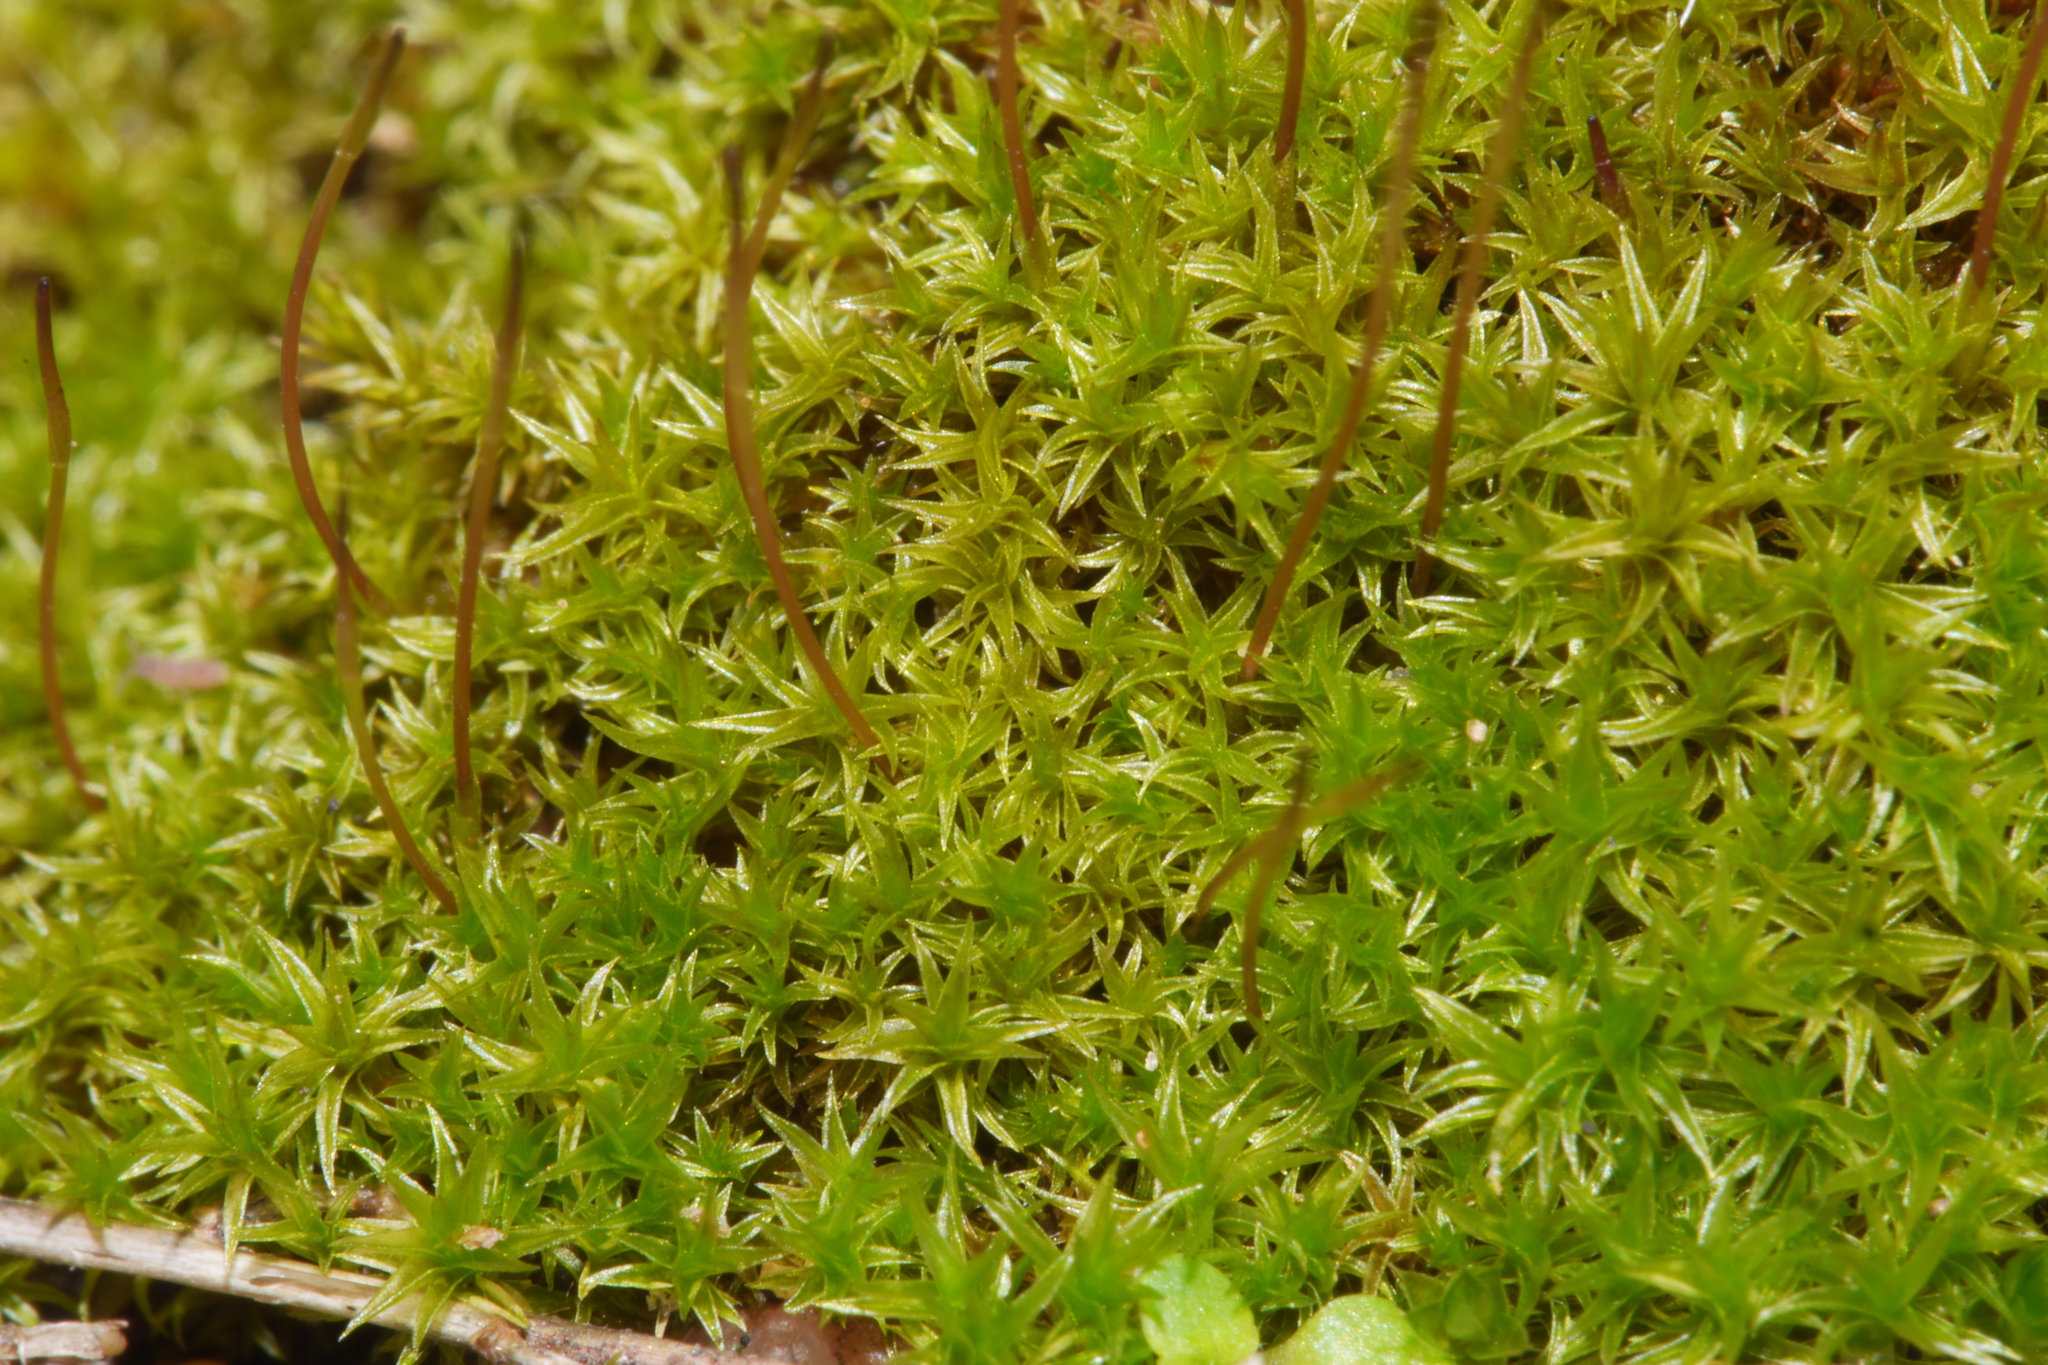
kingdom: Plantae
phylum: Bryophyta
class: Bryopsida
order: Dicranales
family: Ditrichaceae
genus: Ceratodon
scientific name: Ceratodon purpureus
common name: Redshank
